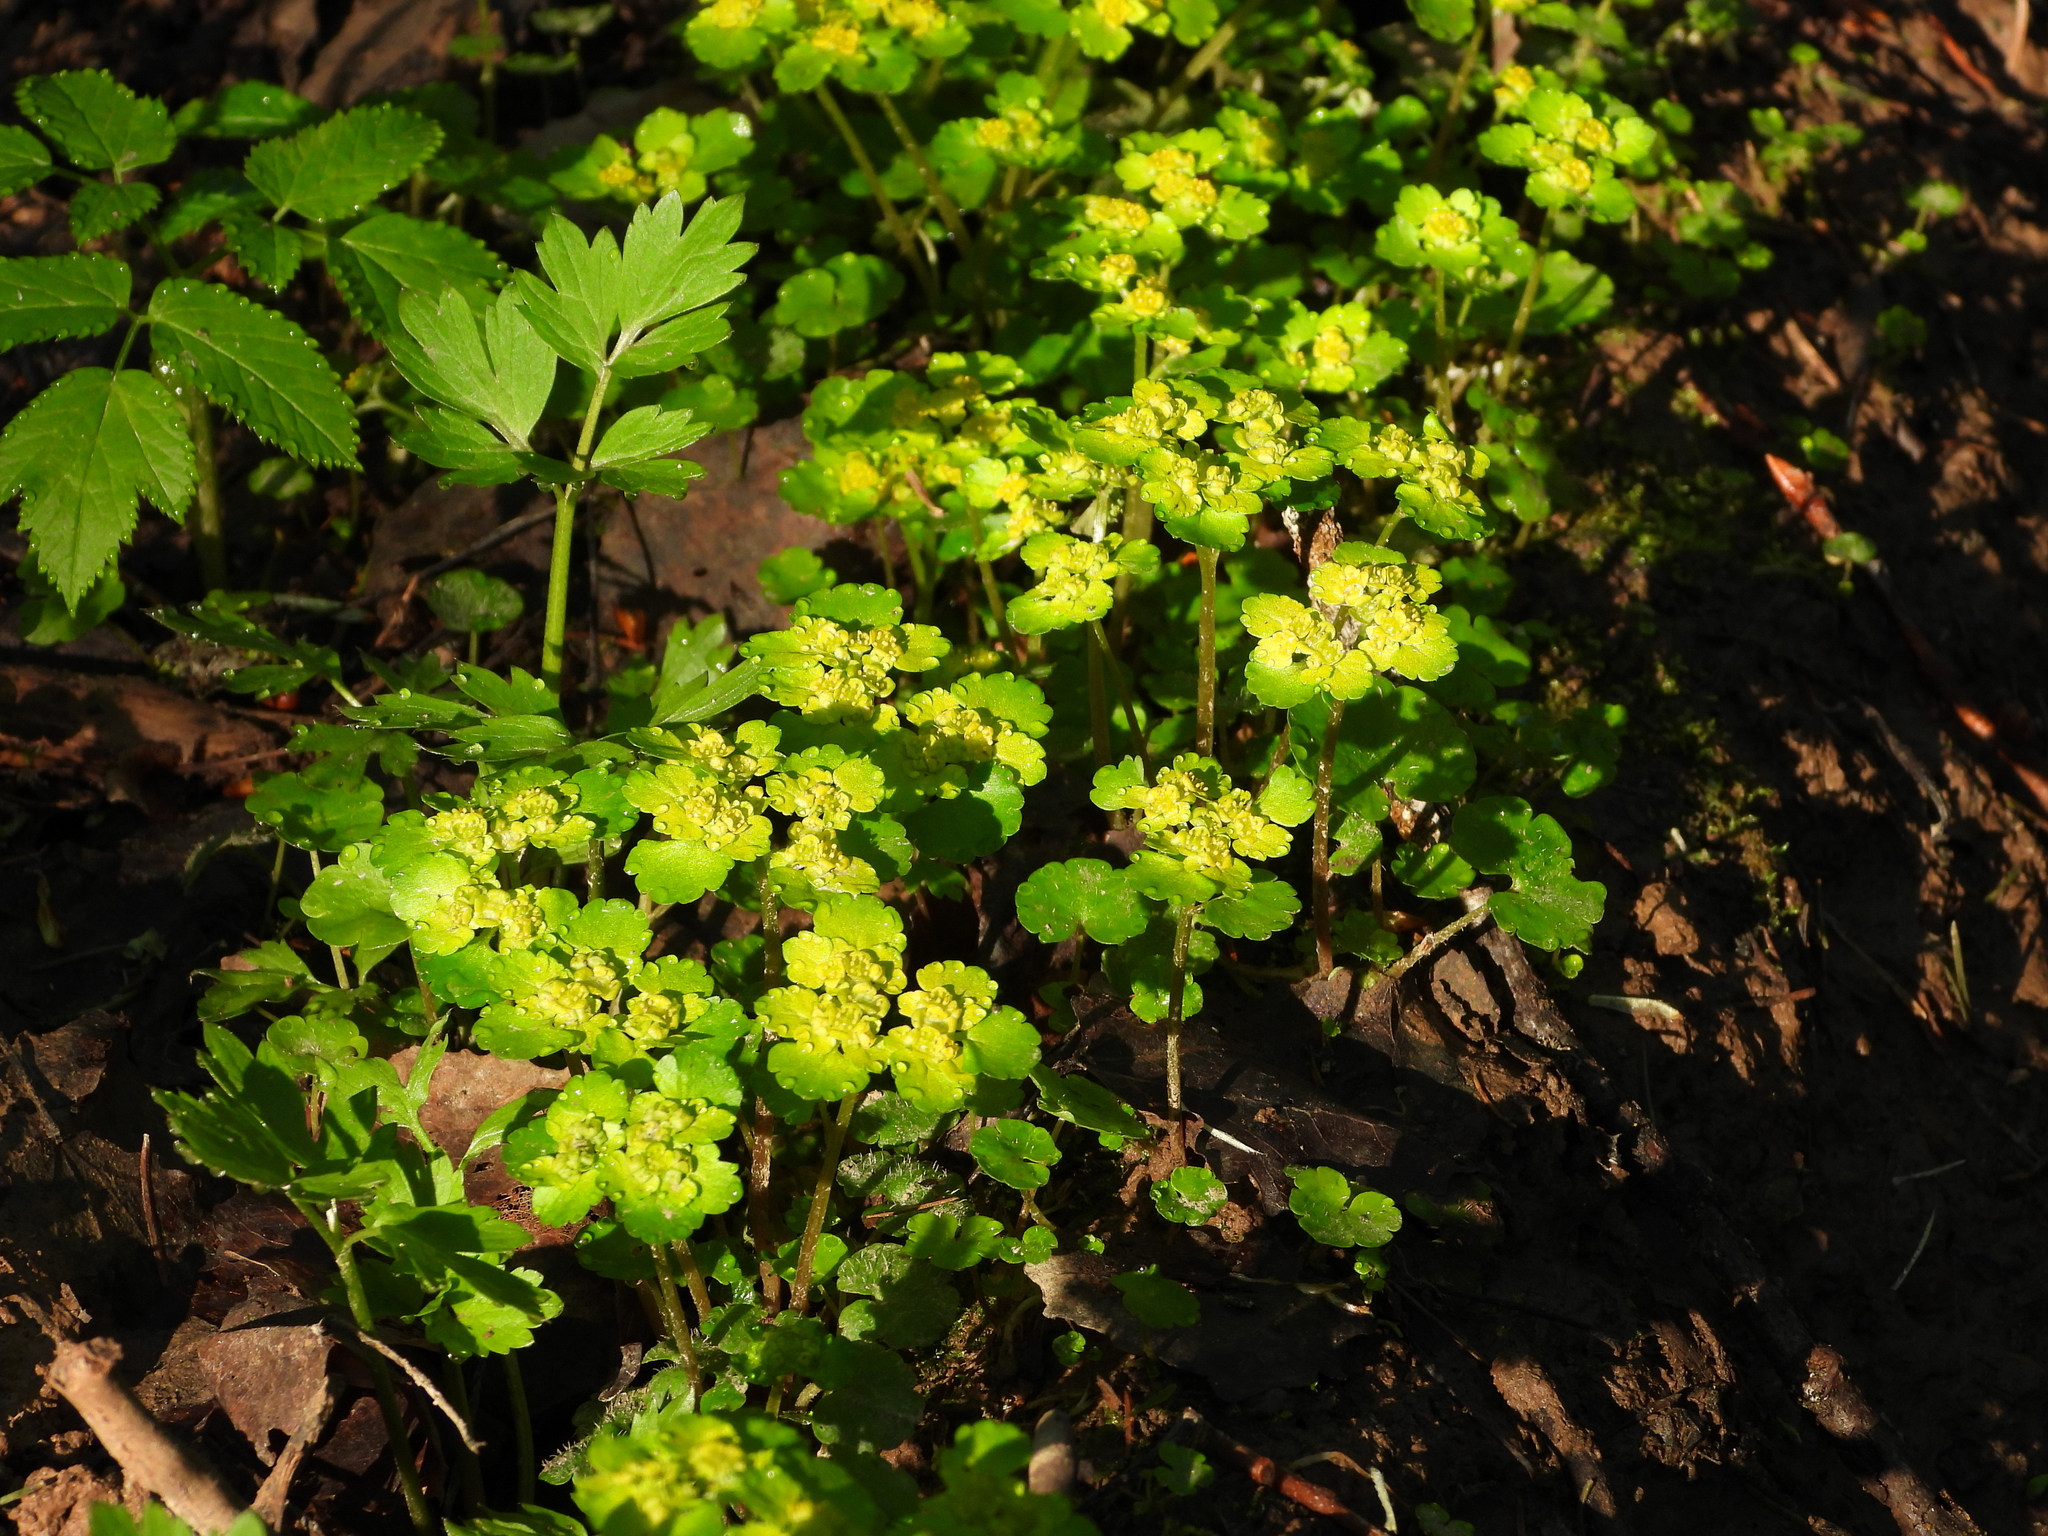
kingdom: Plantae
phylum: Tracheophyta
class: Magnoliopsida
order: Saxifragales
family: Saxifragaceae
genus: Chrysosplenium
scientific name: Chrysosplenium alternifolium
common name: Alternate-leaved golden-saxifrage
